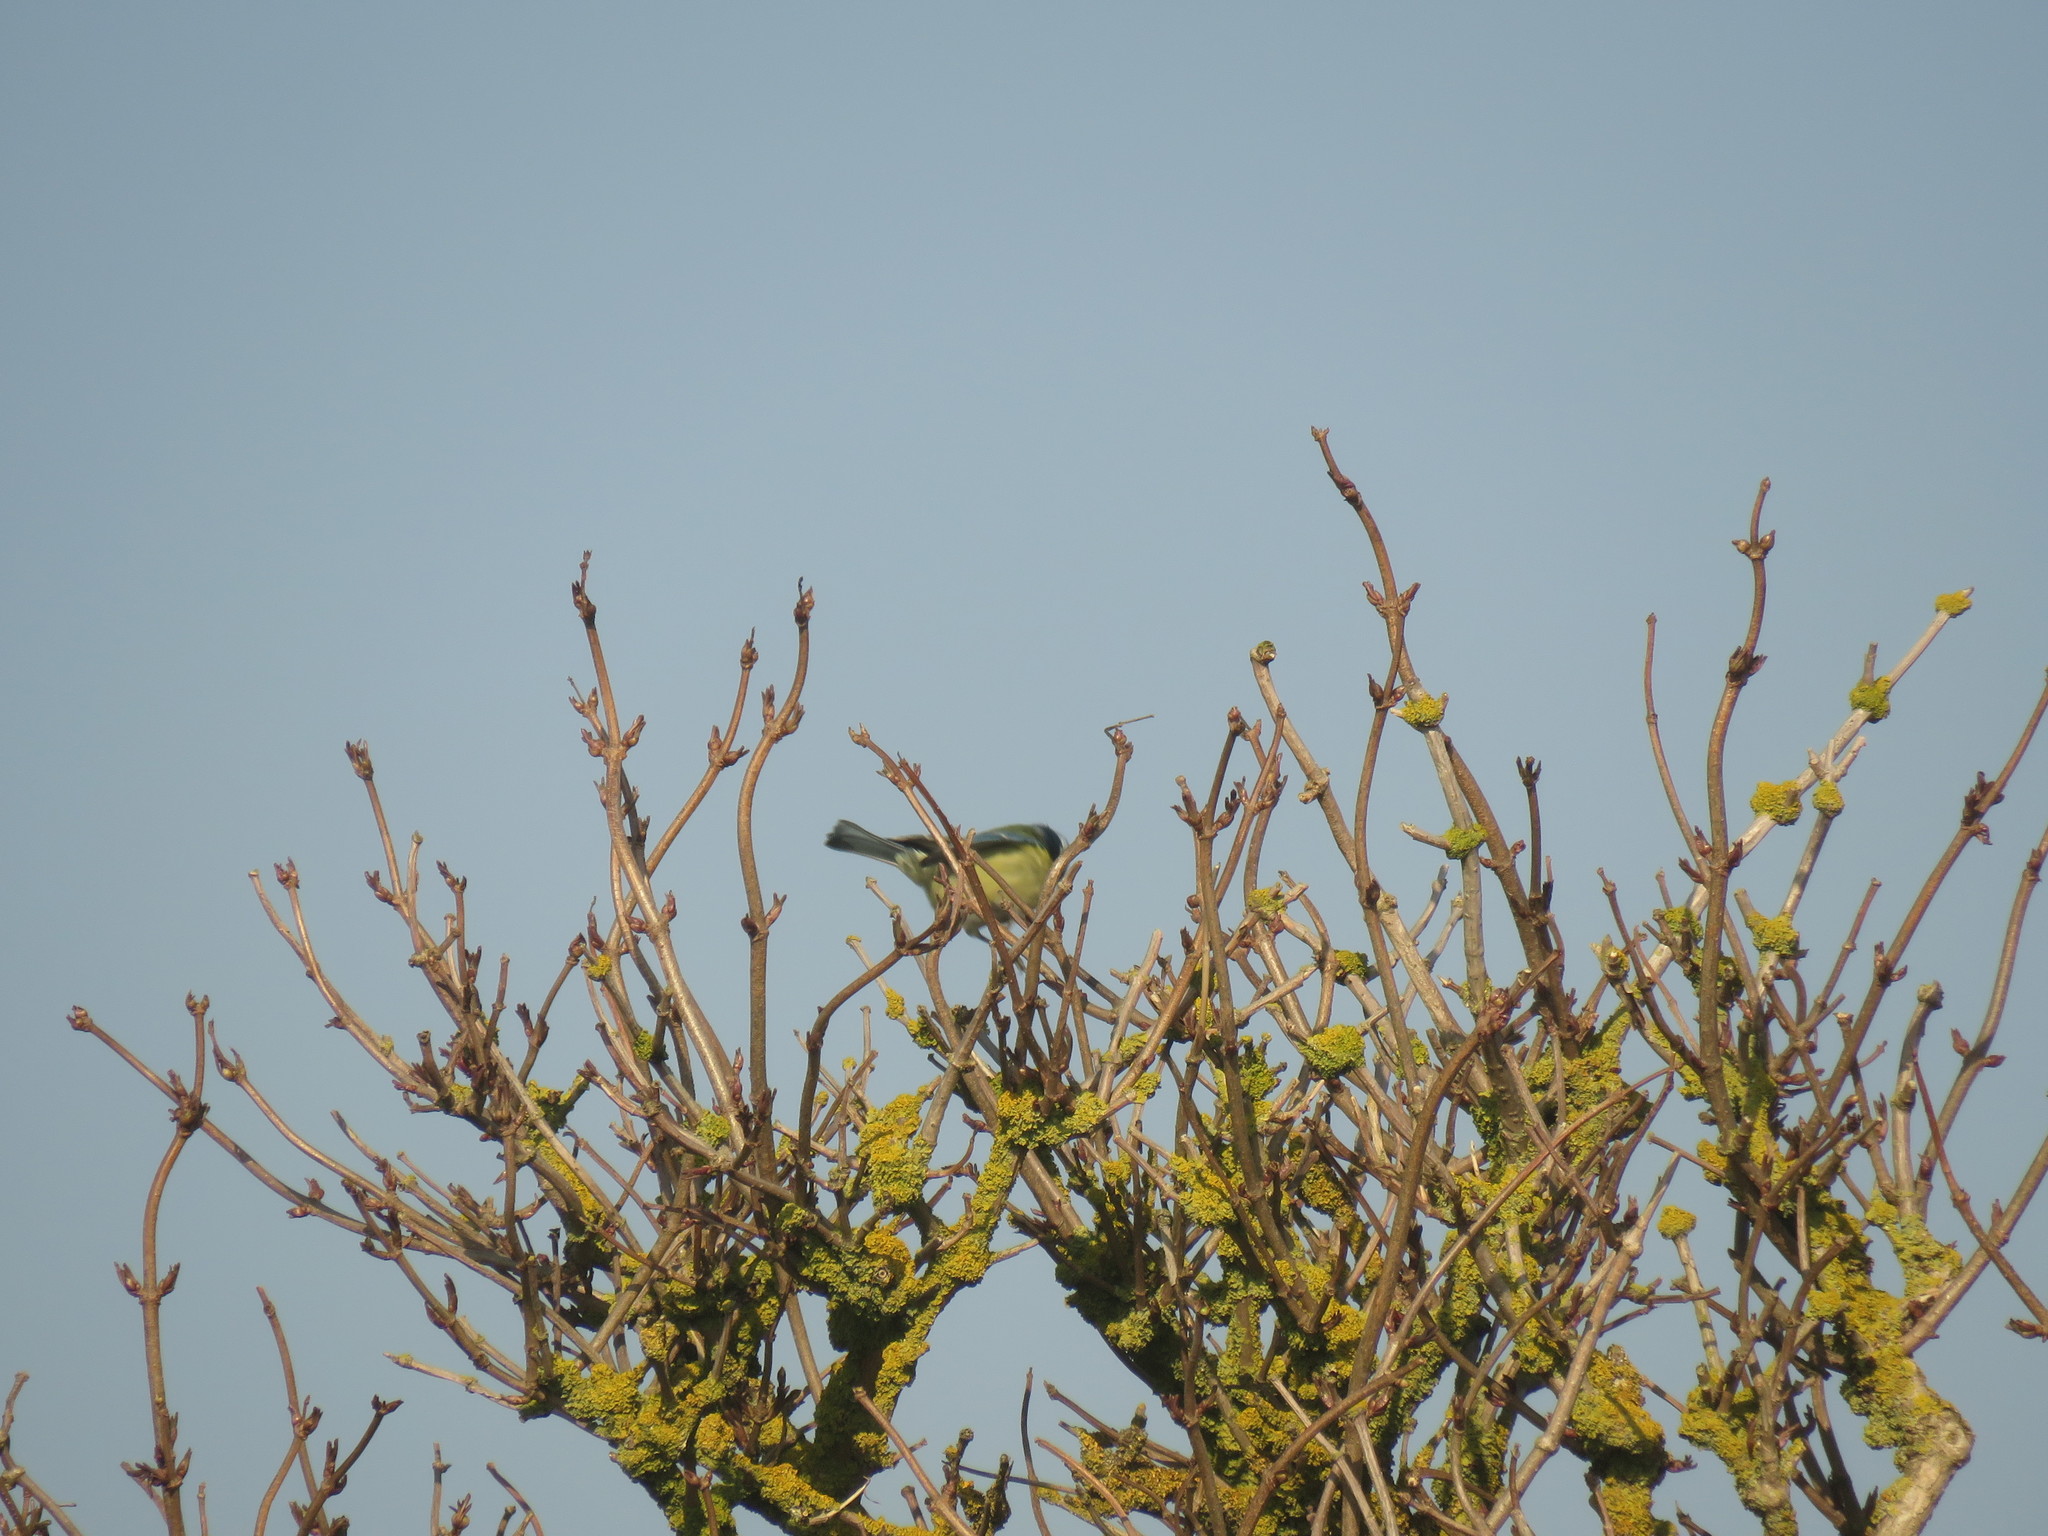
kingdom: Animalia
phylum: Chordata
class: Aves
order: Passeriformes
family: Paridae
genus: Cyanistes
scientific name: Cyanistes caeruleus
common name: Eurasian blue tit
